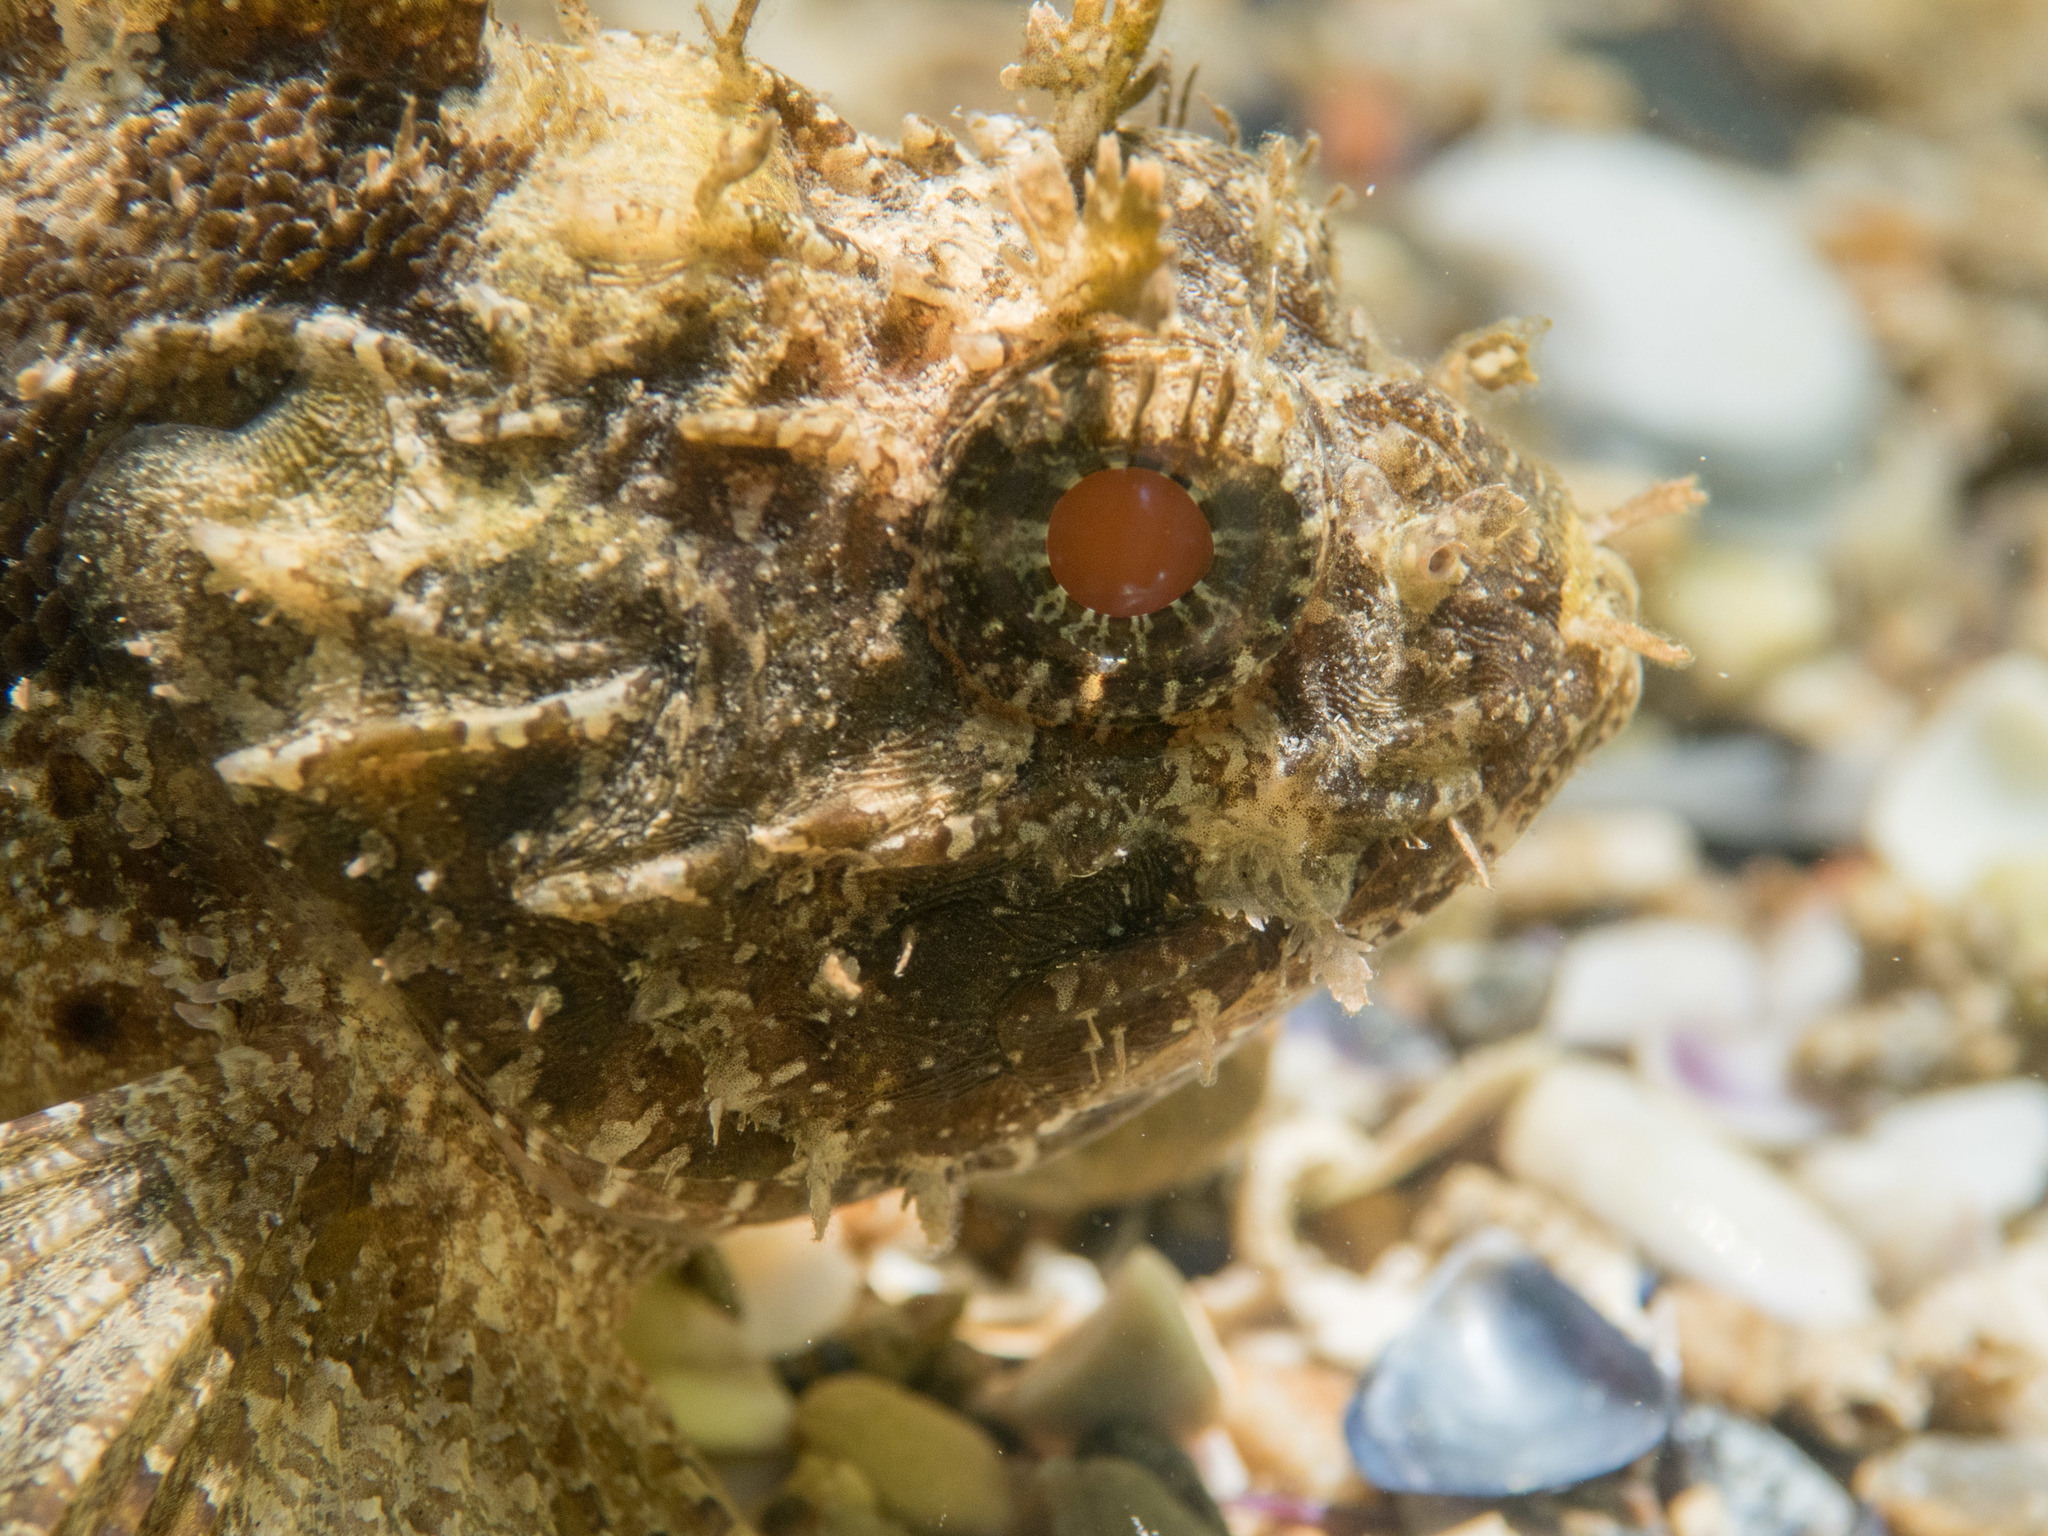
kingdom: Animalia
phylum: Chordata
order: Scorpaeniformes
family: Scorpaenidae
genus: Scorpaena
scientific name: Scorpaena porcus
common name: Black scorpionfish
